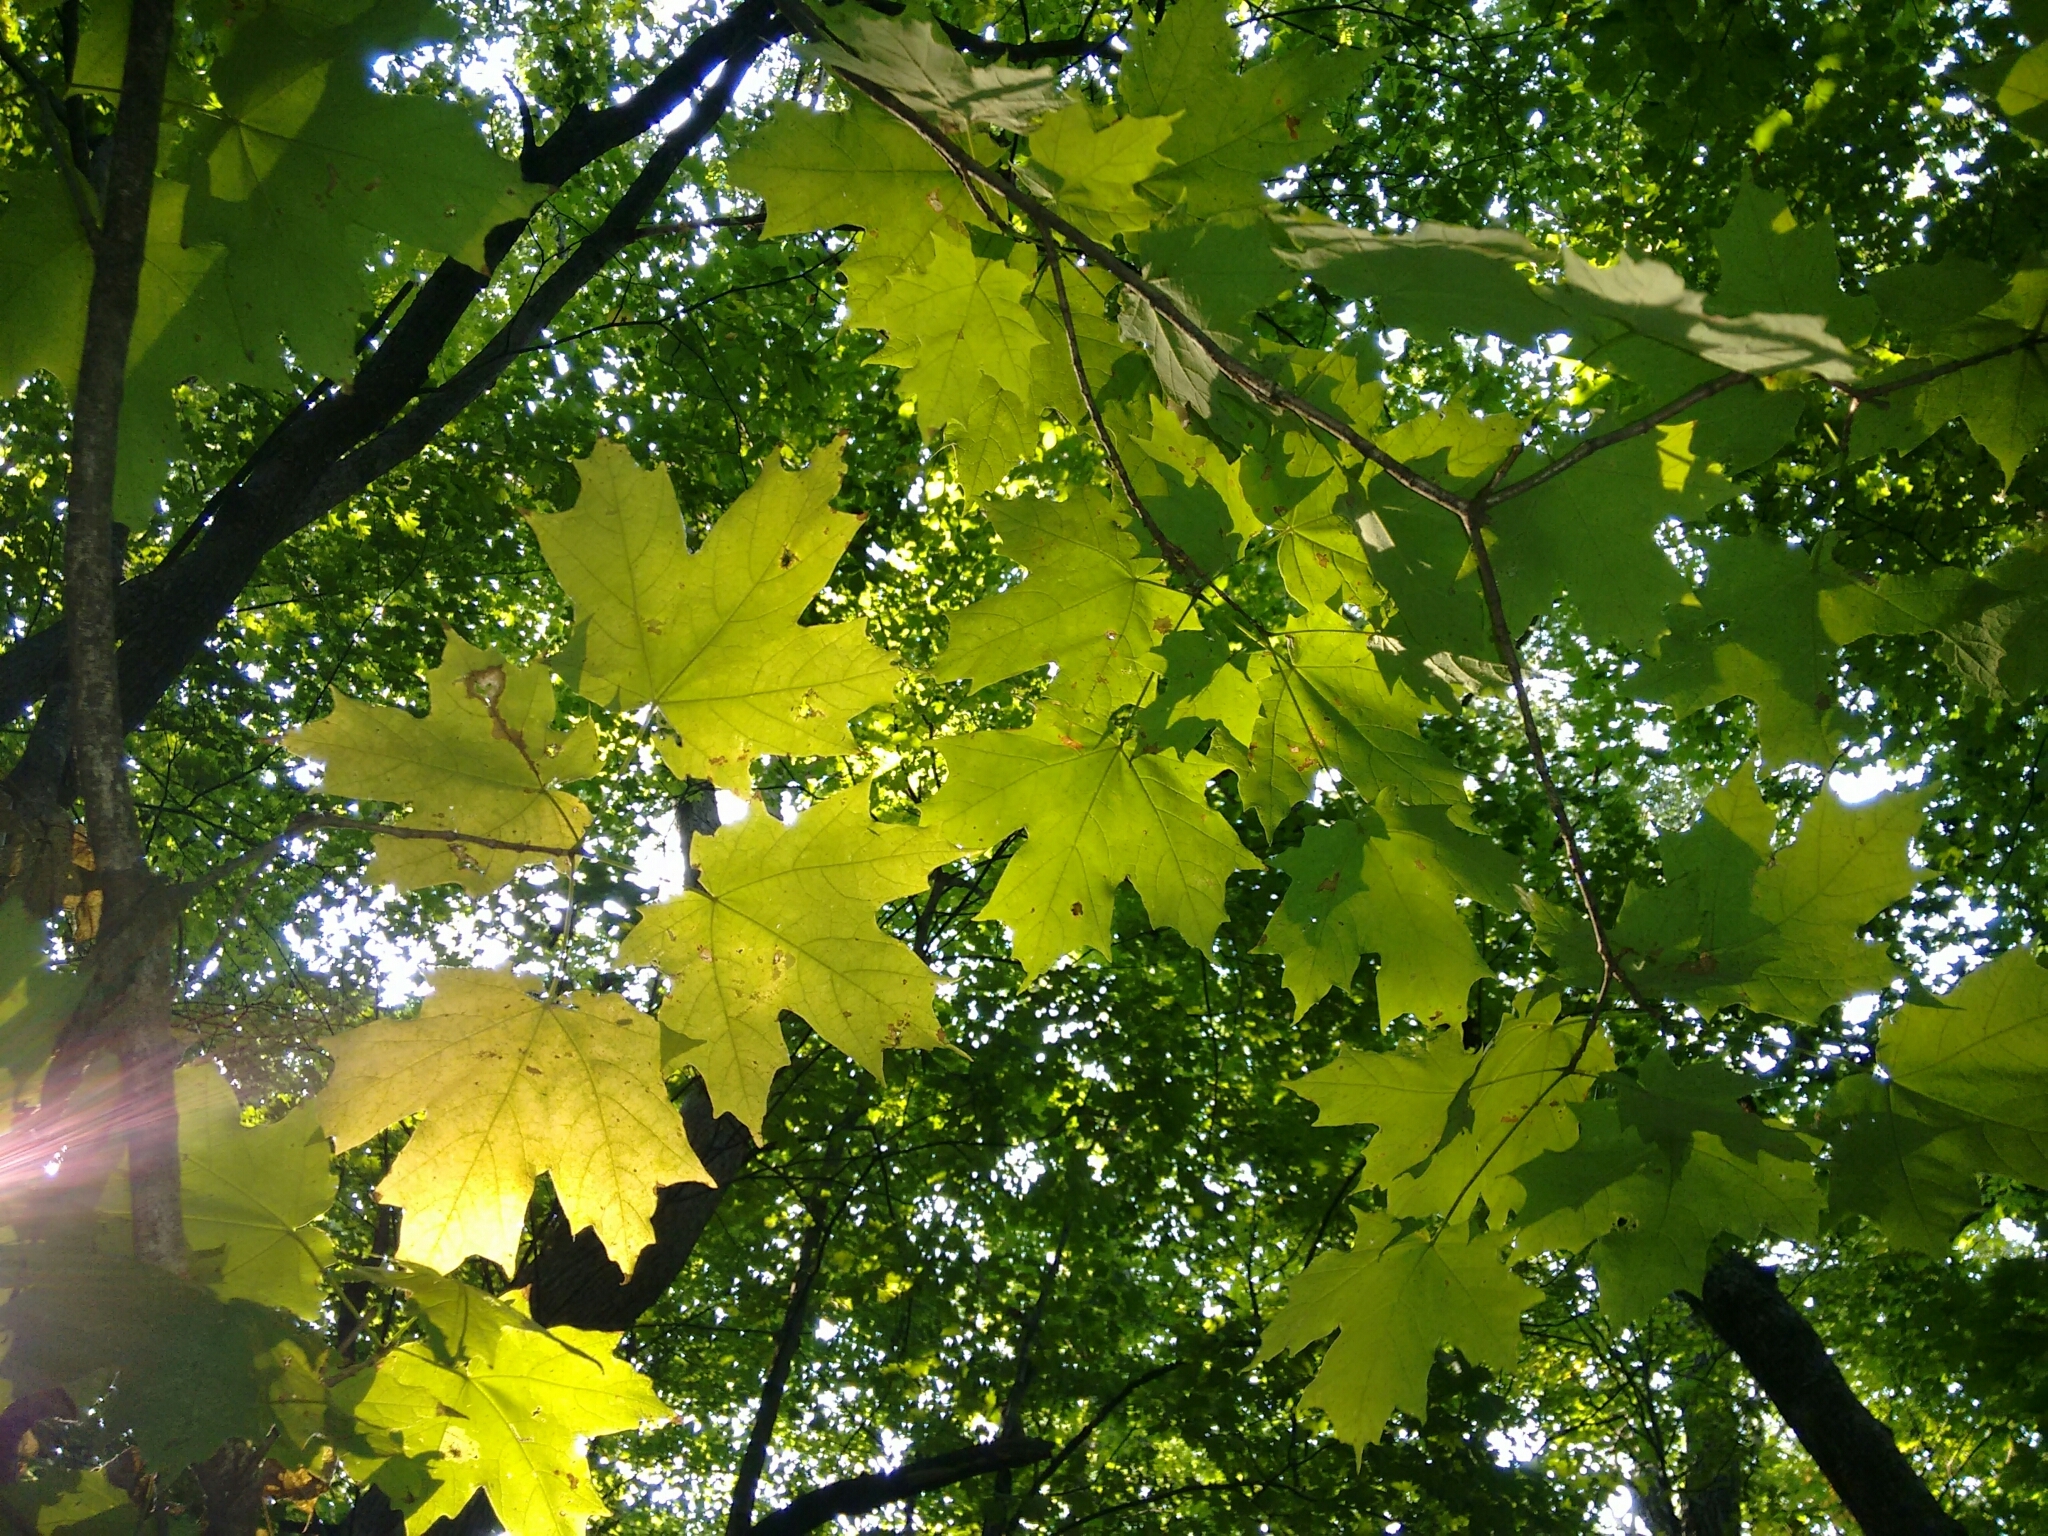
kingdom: Plantae
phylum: Tracheophyta
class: Magnoliopsida
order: Sapindales
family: Sapindaceae
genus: Acer
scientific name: Acer saccharum
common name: Sugar maple
